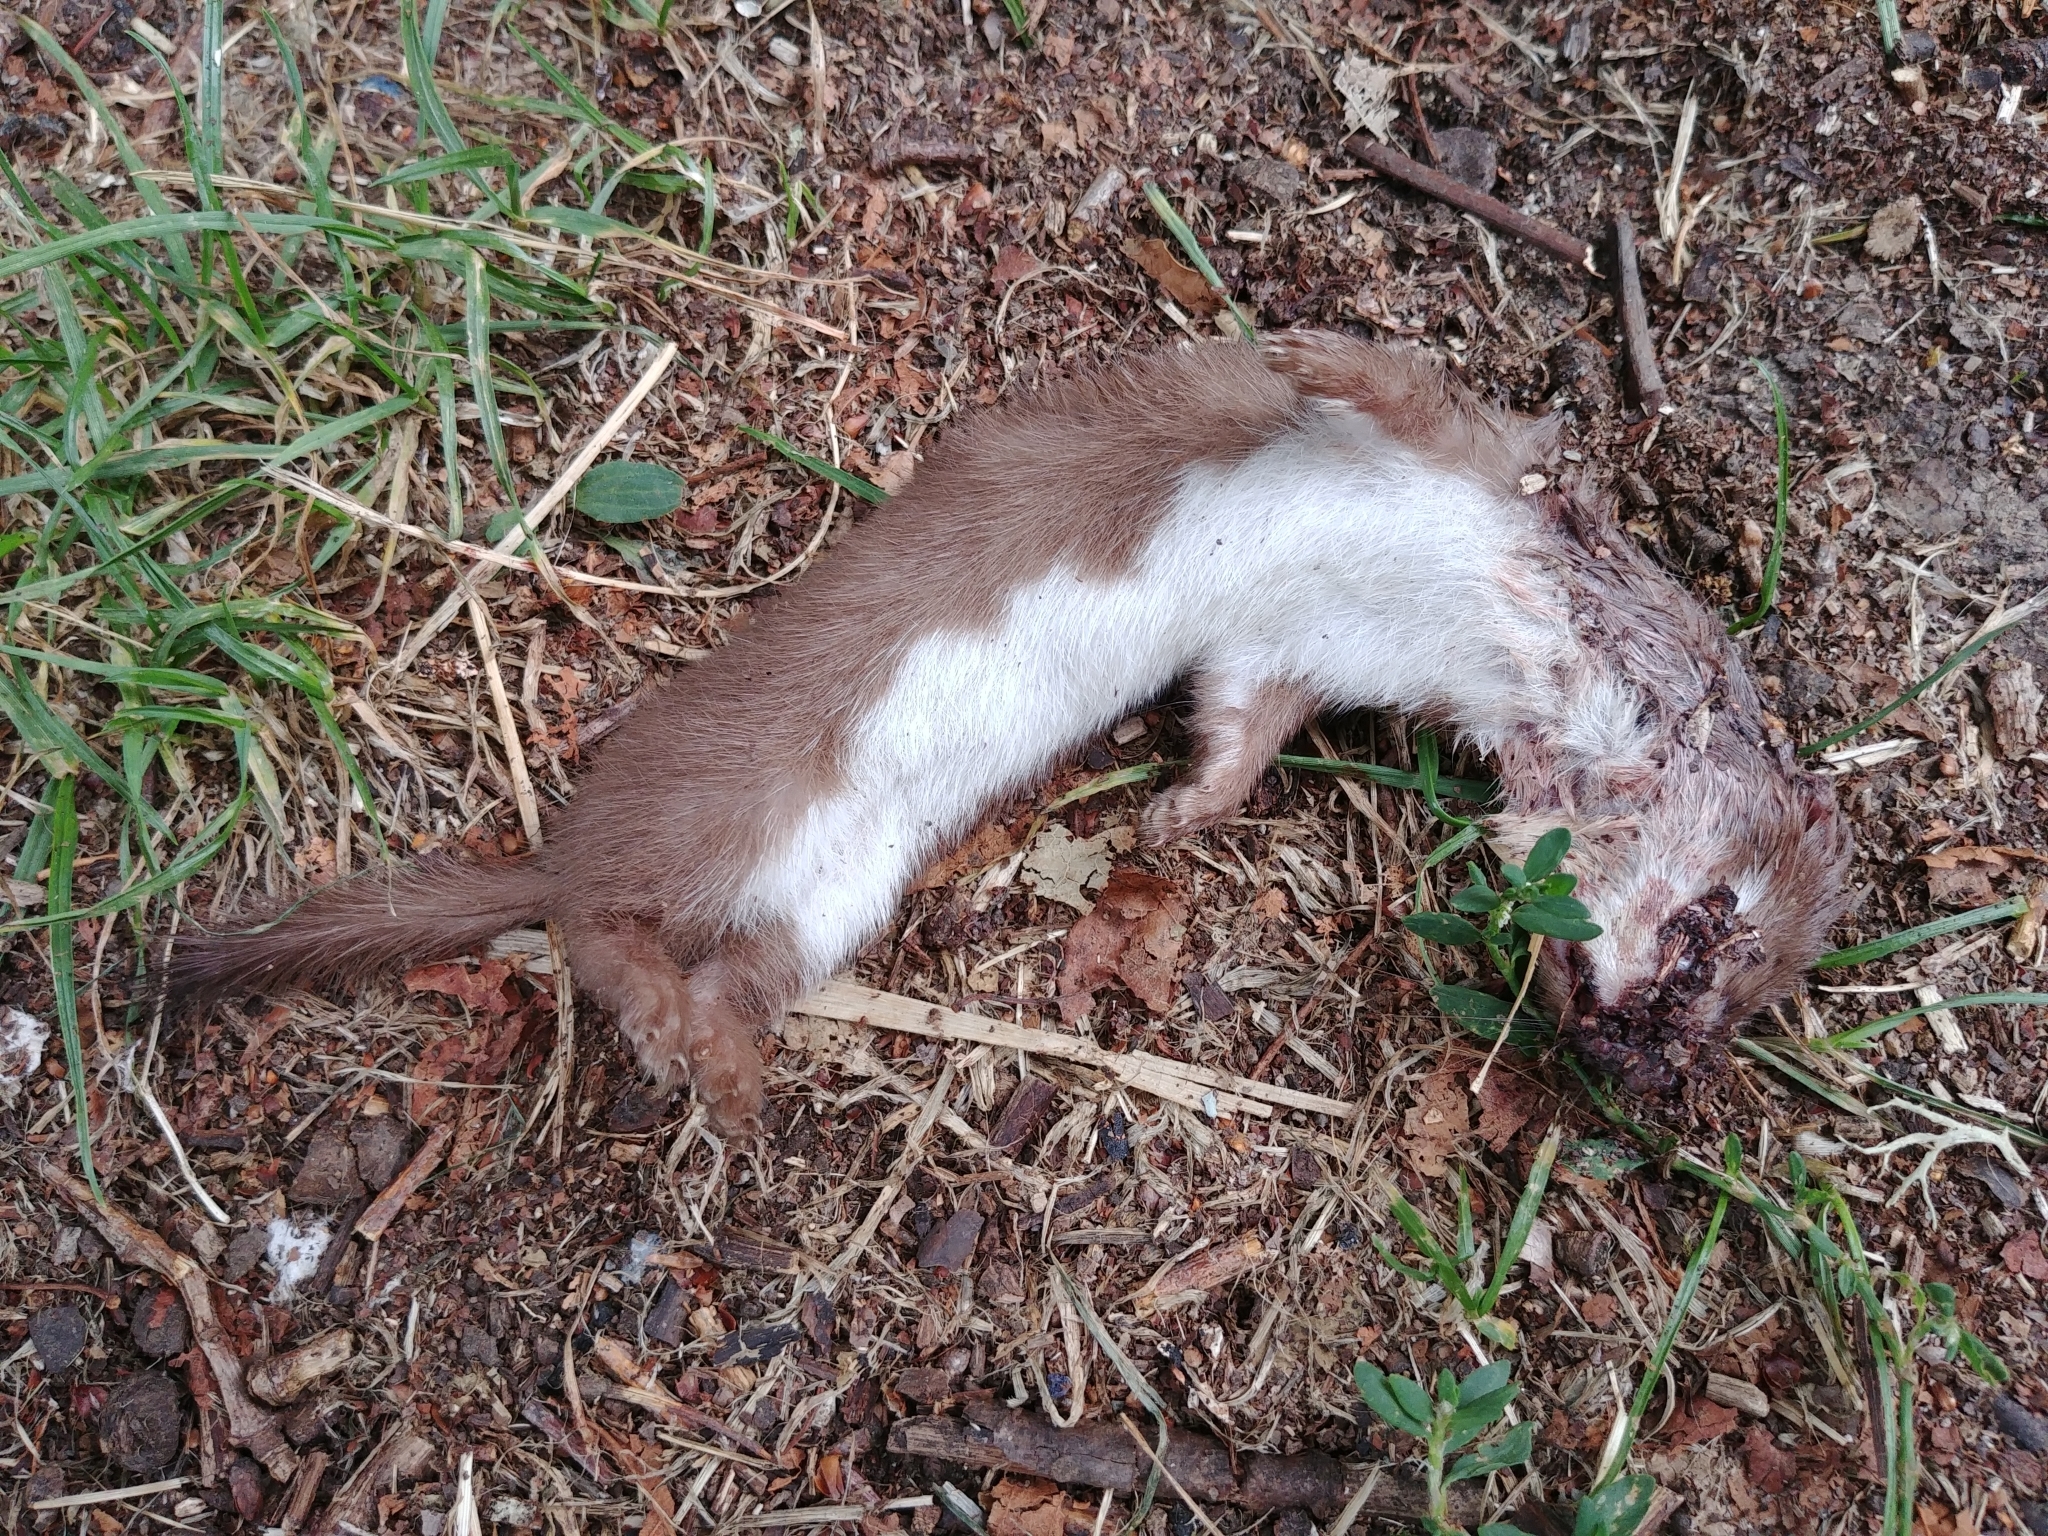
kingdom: Animalia
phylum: Chordata
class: Mammalia
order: Carnivora
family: Mustelidae
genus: Mustela
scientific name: Mustela nivalis
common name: Least weasel
